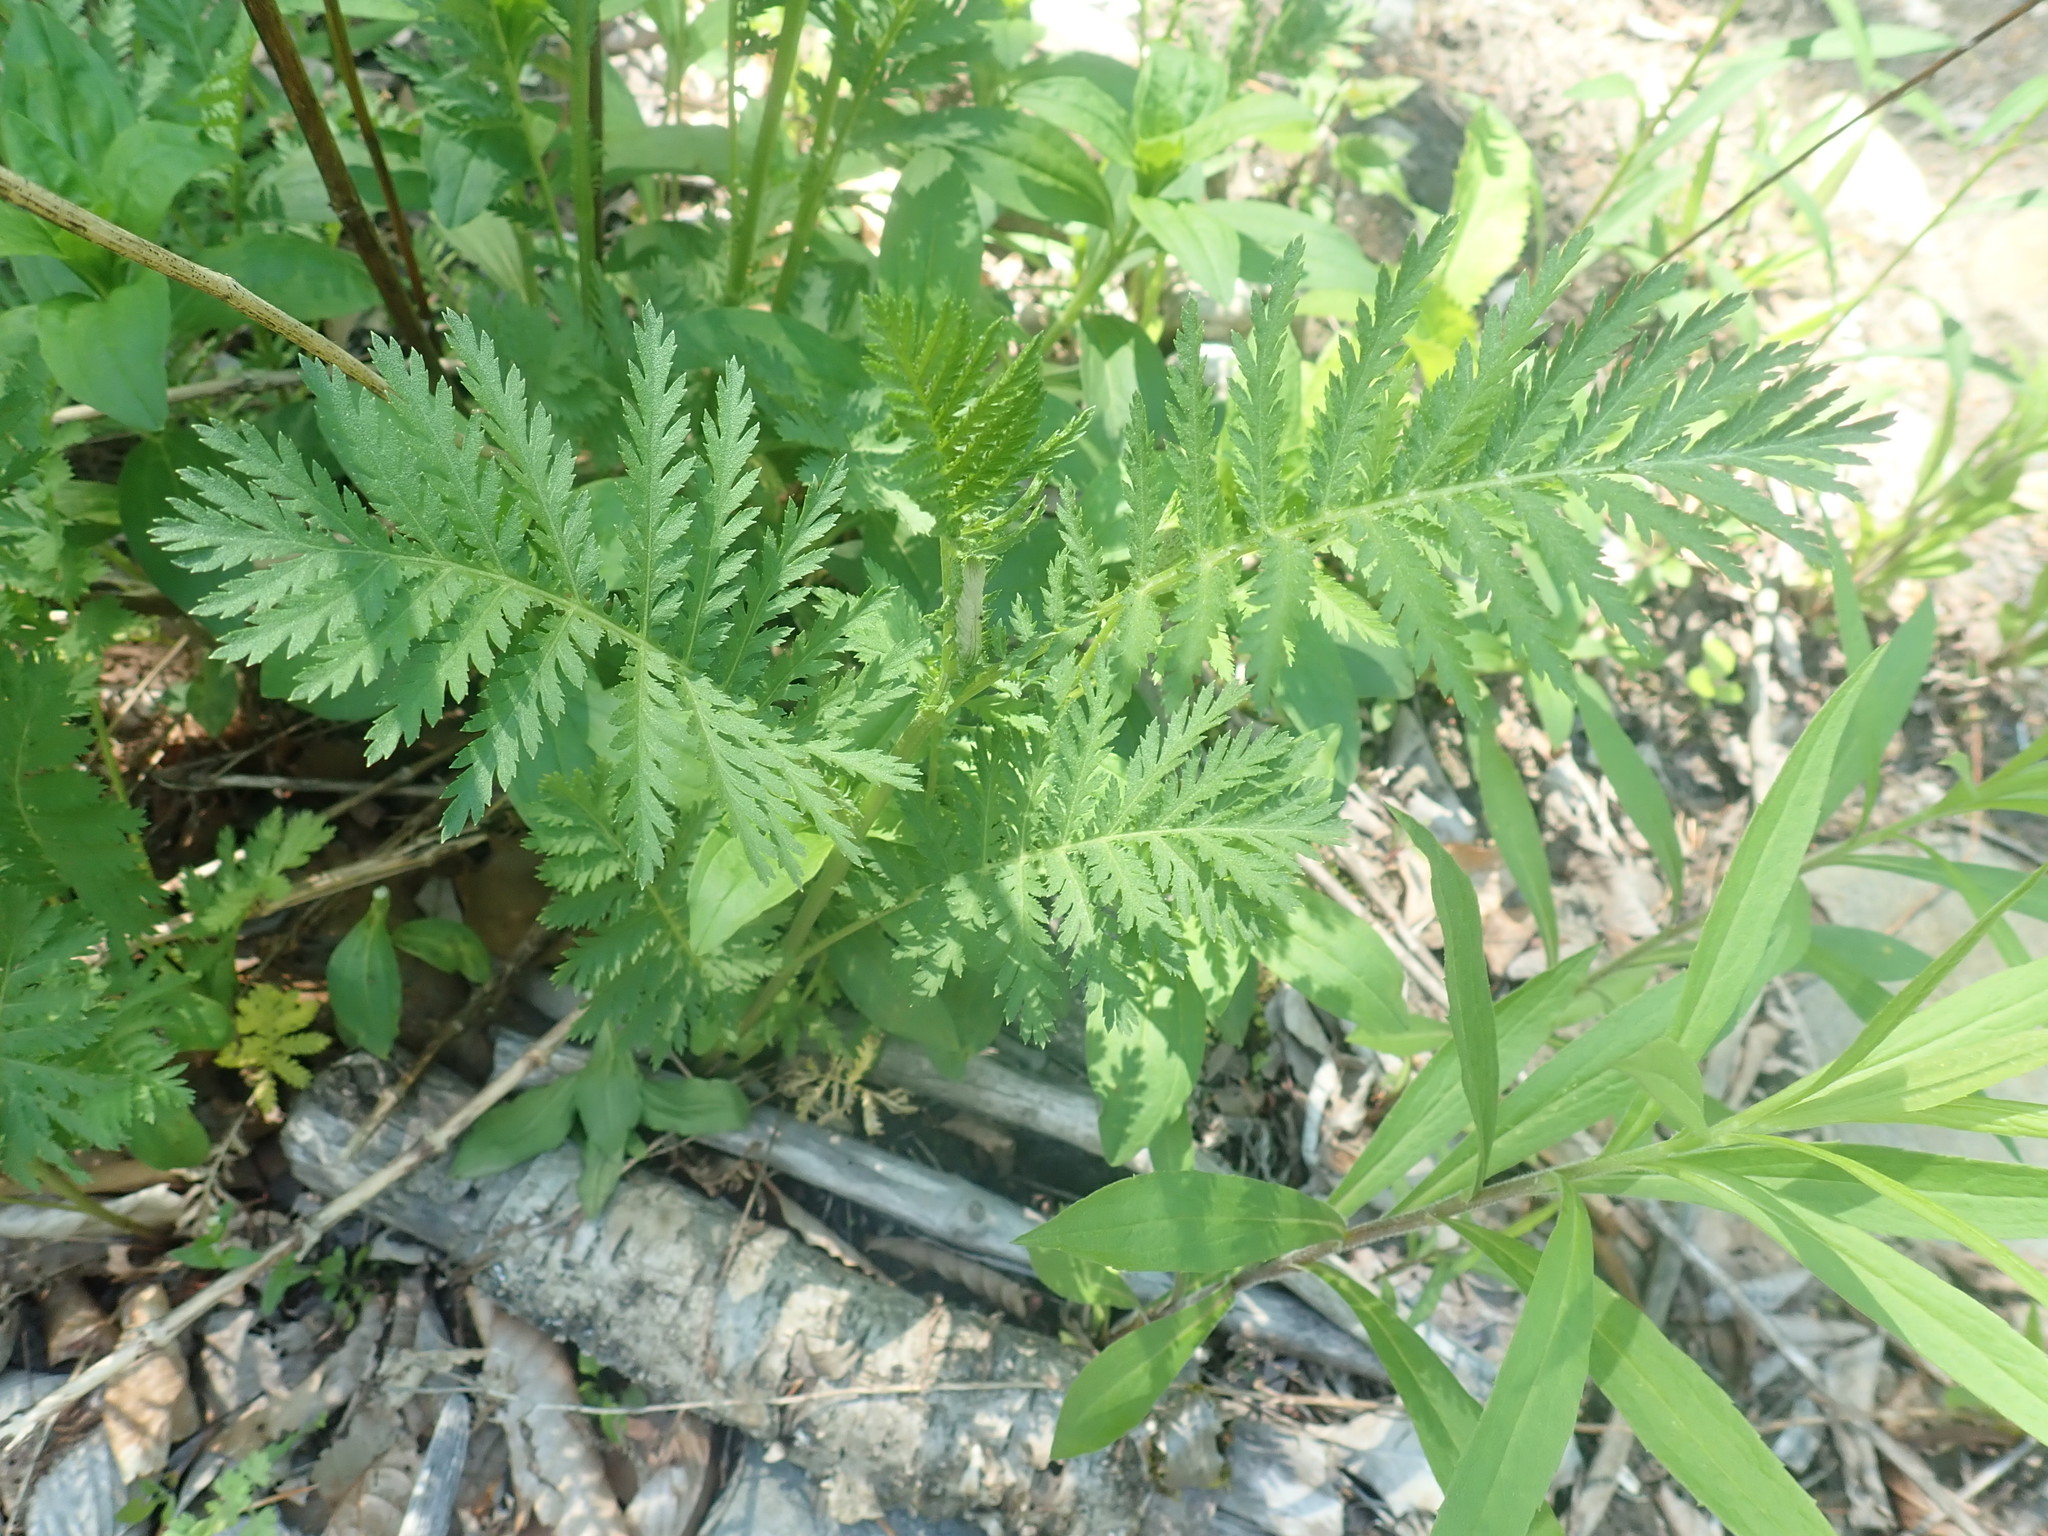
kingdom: Plantae
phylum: Tracheophyta
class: Magnoliopsida
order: Asterales
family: Asteraceae
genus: Tanacetum
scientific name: Tanacetum vulgare
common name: Common tansy
